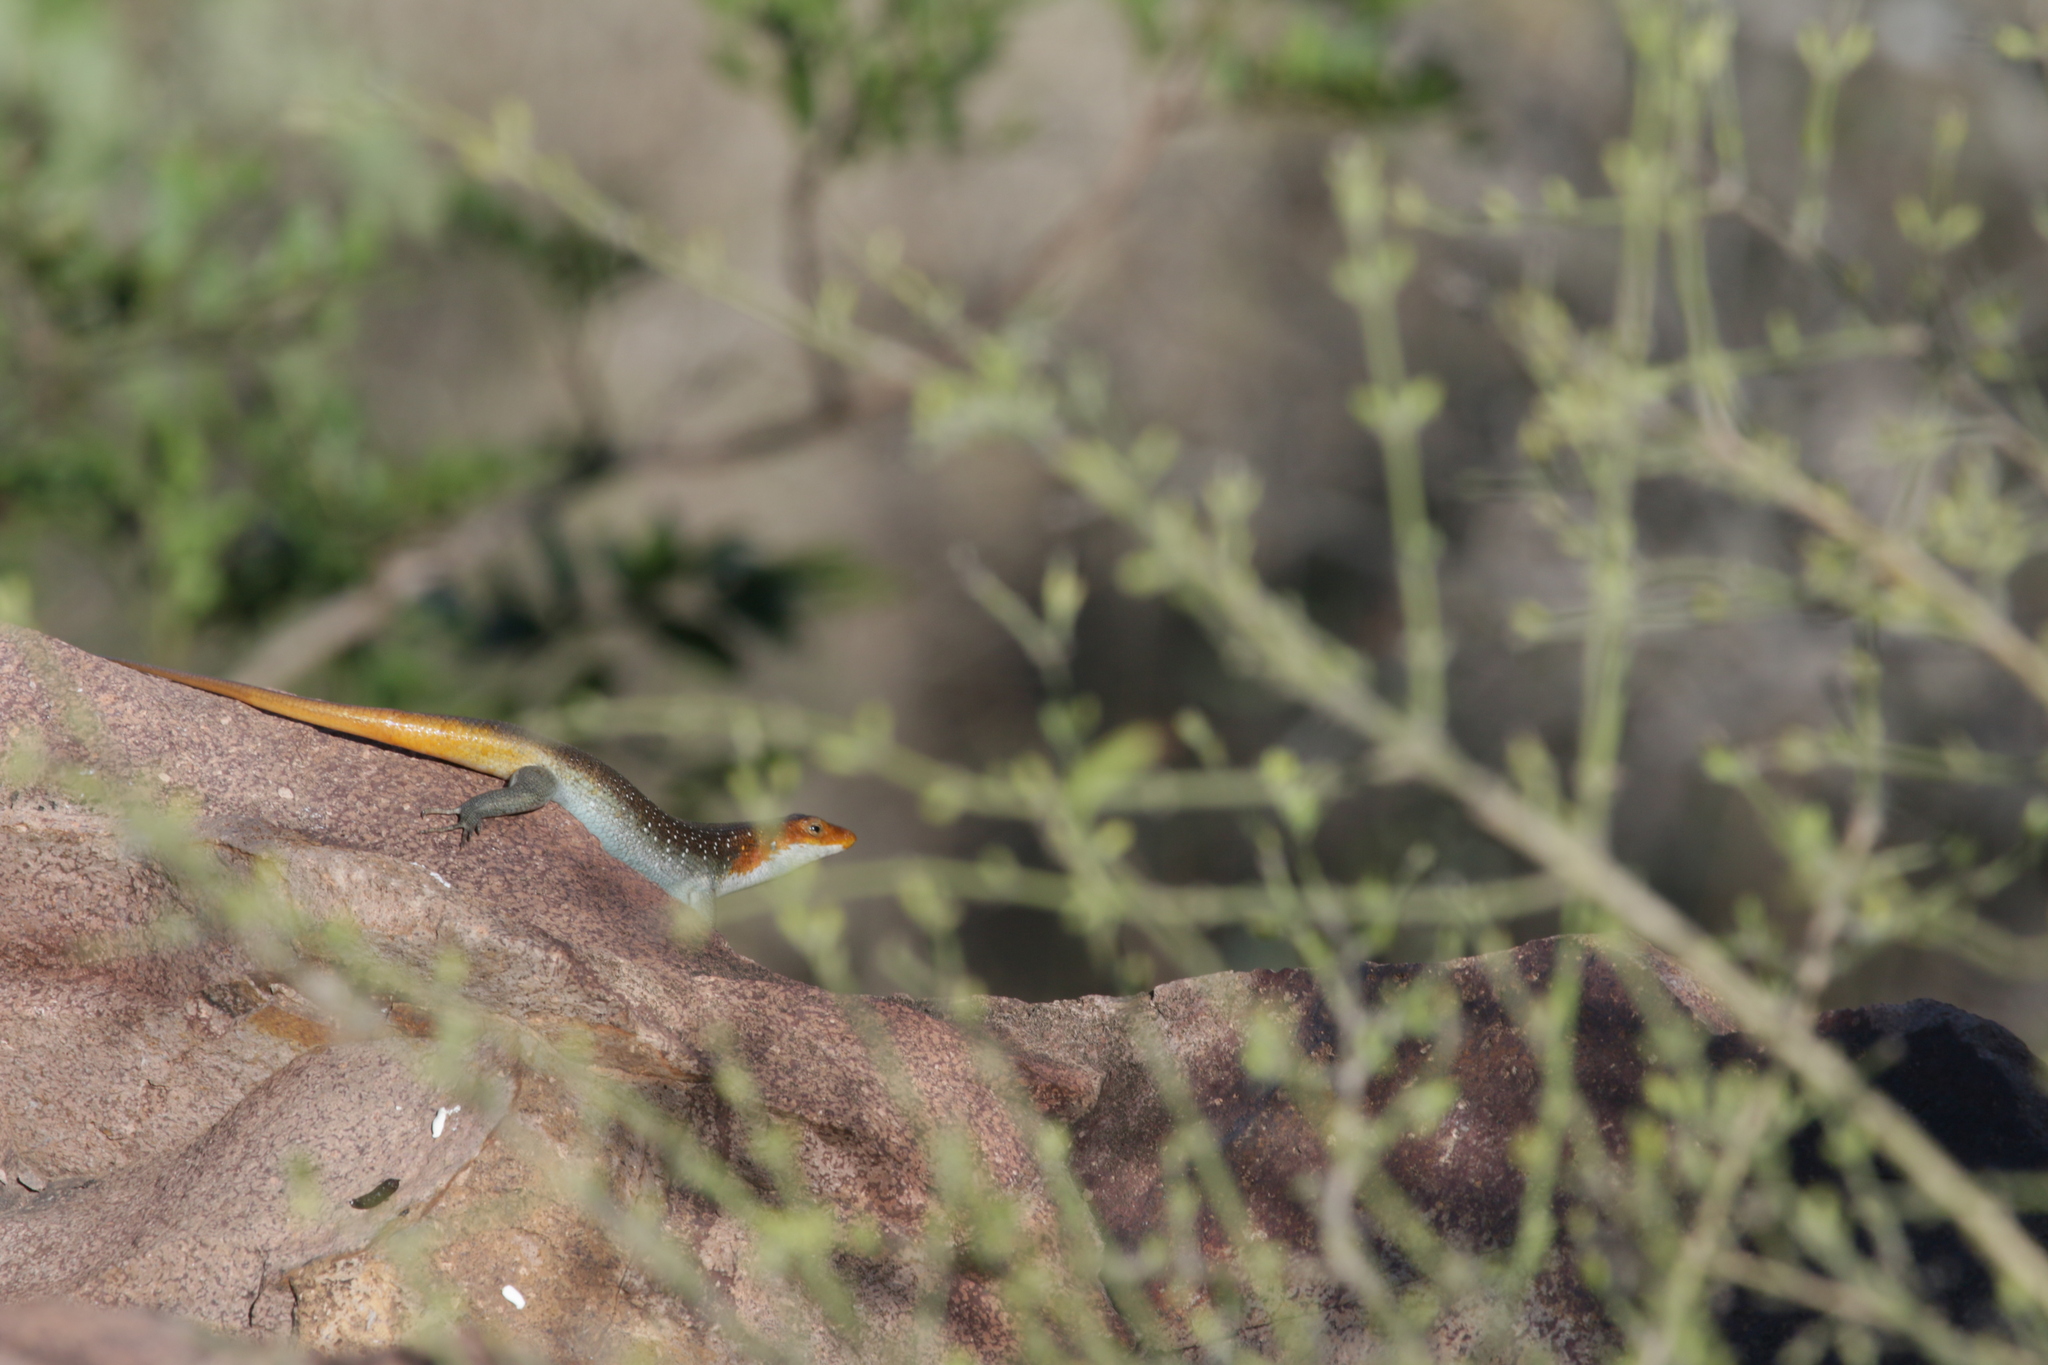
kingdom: Animalia
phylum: Chordata
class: Squamata
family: Scincidae
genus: Trachylepis
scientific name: Trachylepis margaritifera
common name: Rainbow skink
